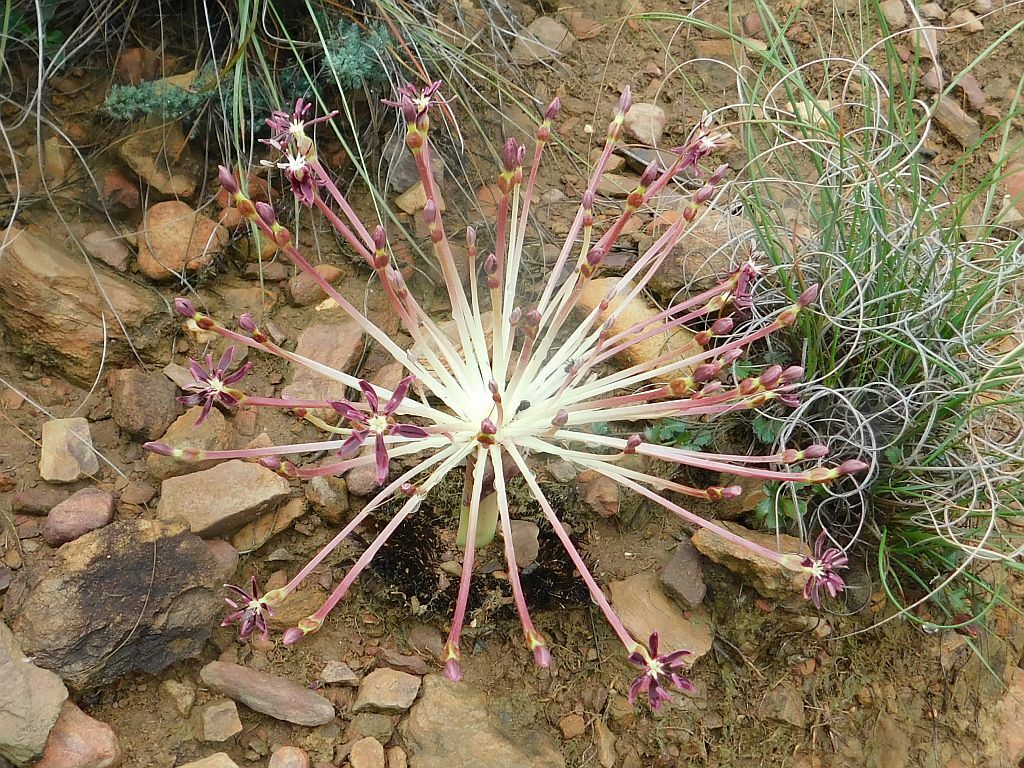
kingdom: Plantae
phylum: Tracheophyta
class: Liliopsida
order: Asparagales
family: Amaryllidaceae
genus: Crossyne
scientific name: Crossyne guttata
